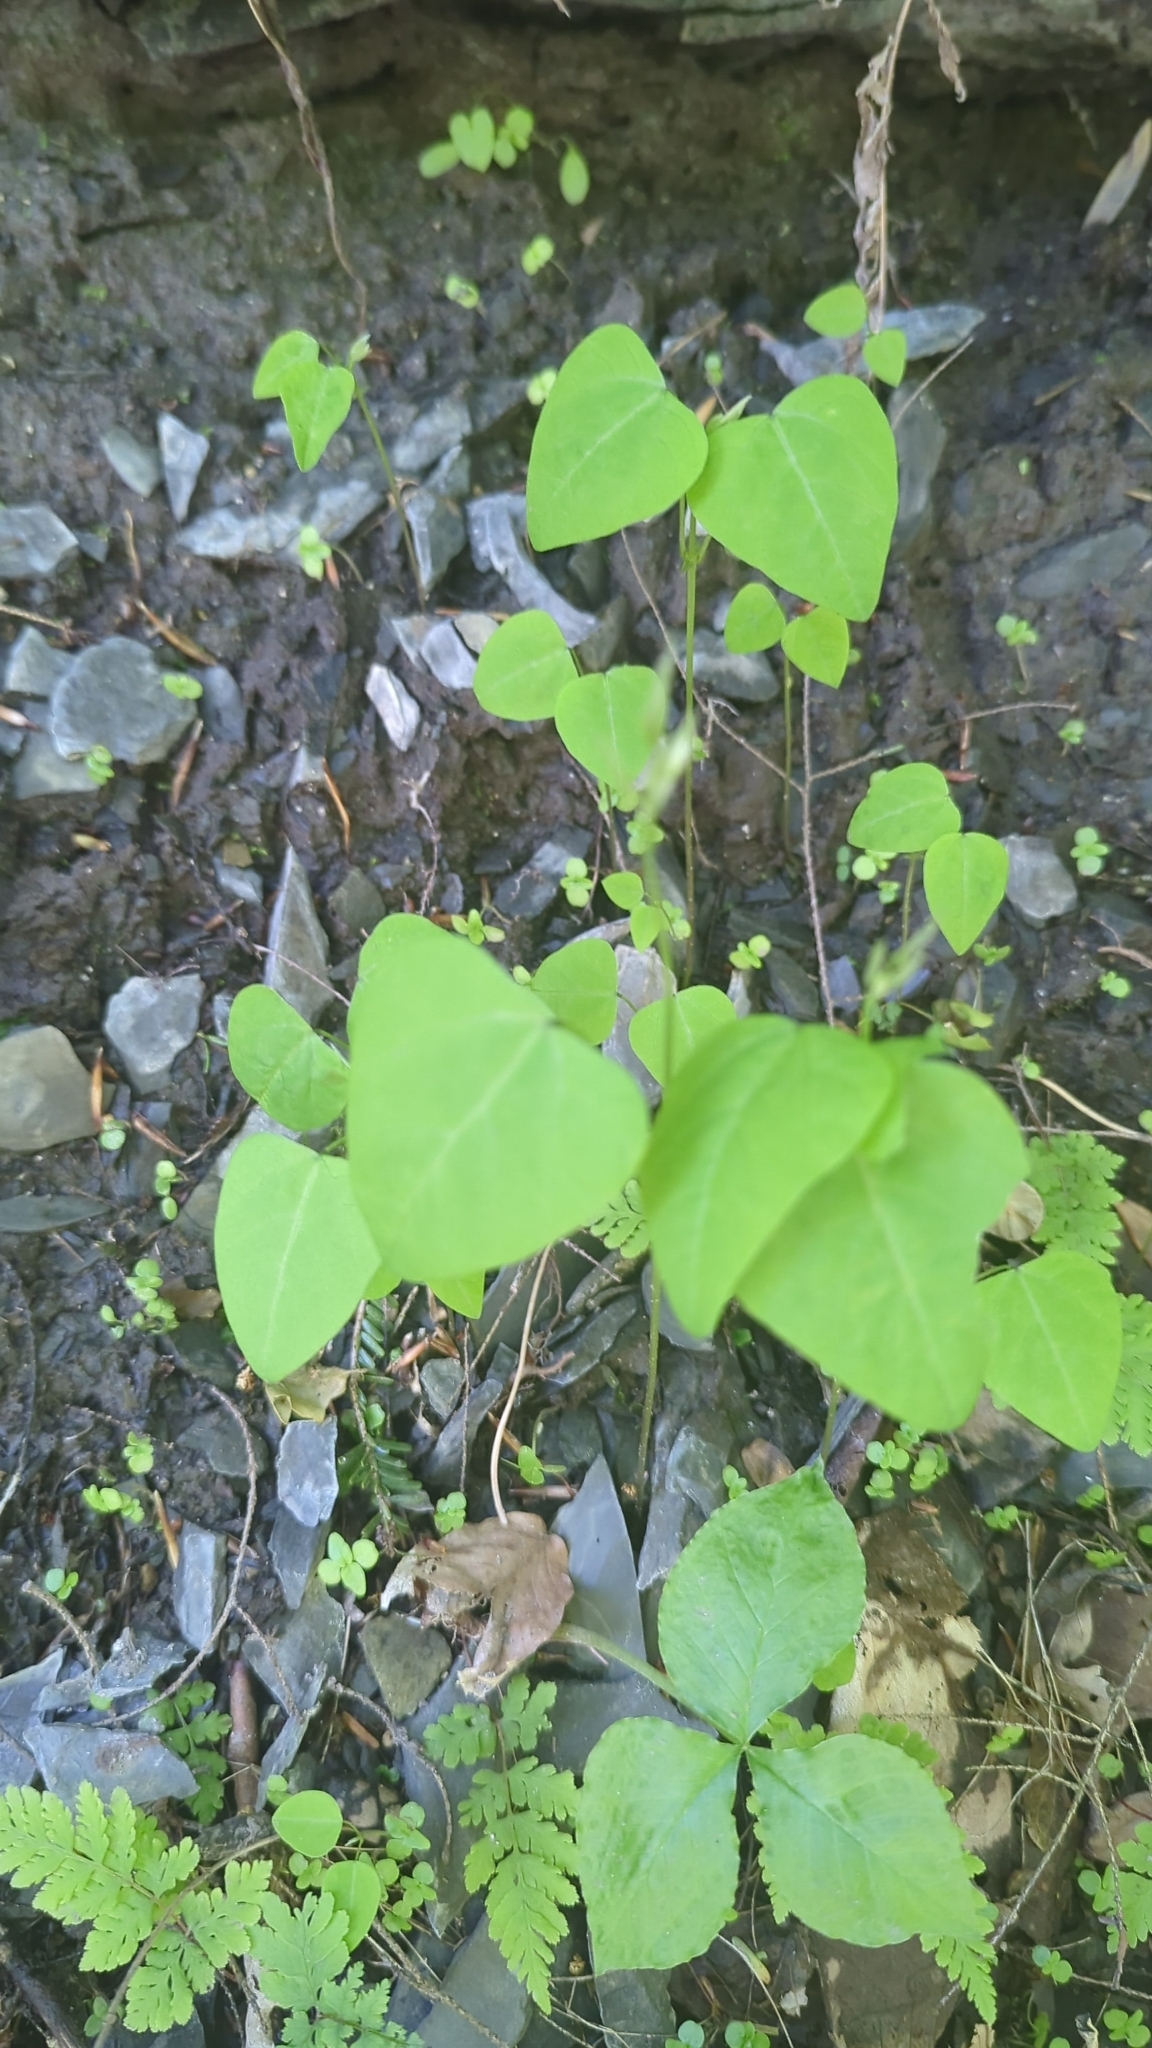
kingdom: Plantae
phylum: Tracheophyta
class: Magnoliopsida
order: Caryophyllales
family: Polygonaceae
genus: Persicaria
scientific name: Persicaria perfoliata
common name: Asiatic tearthumb
